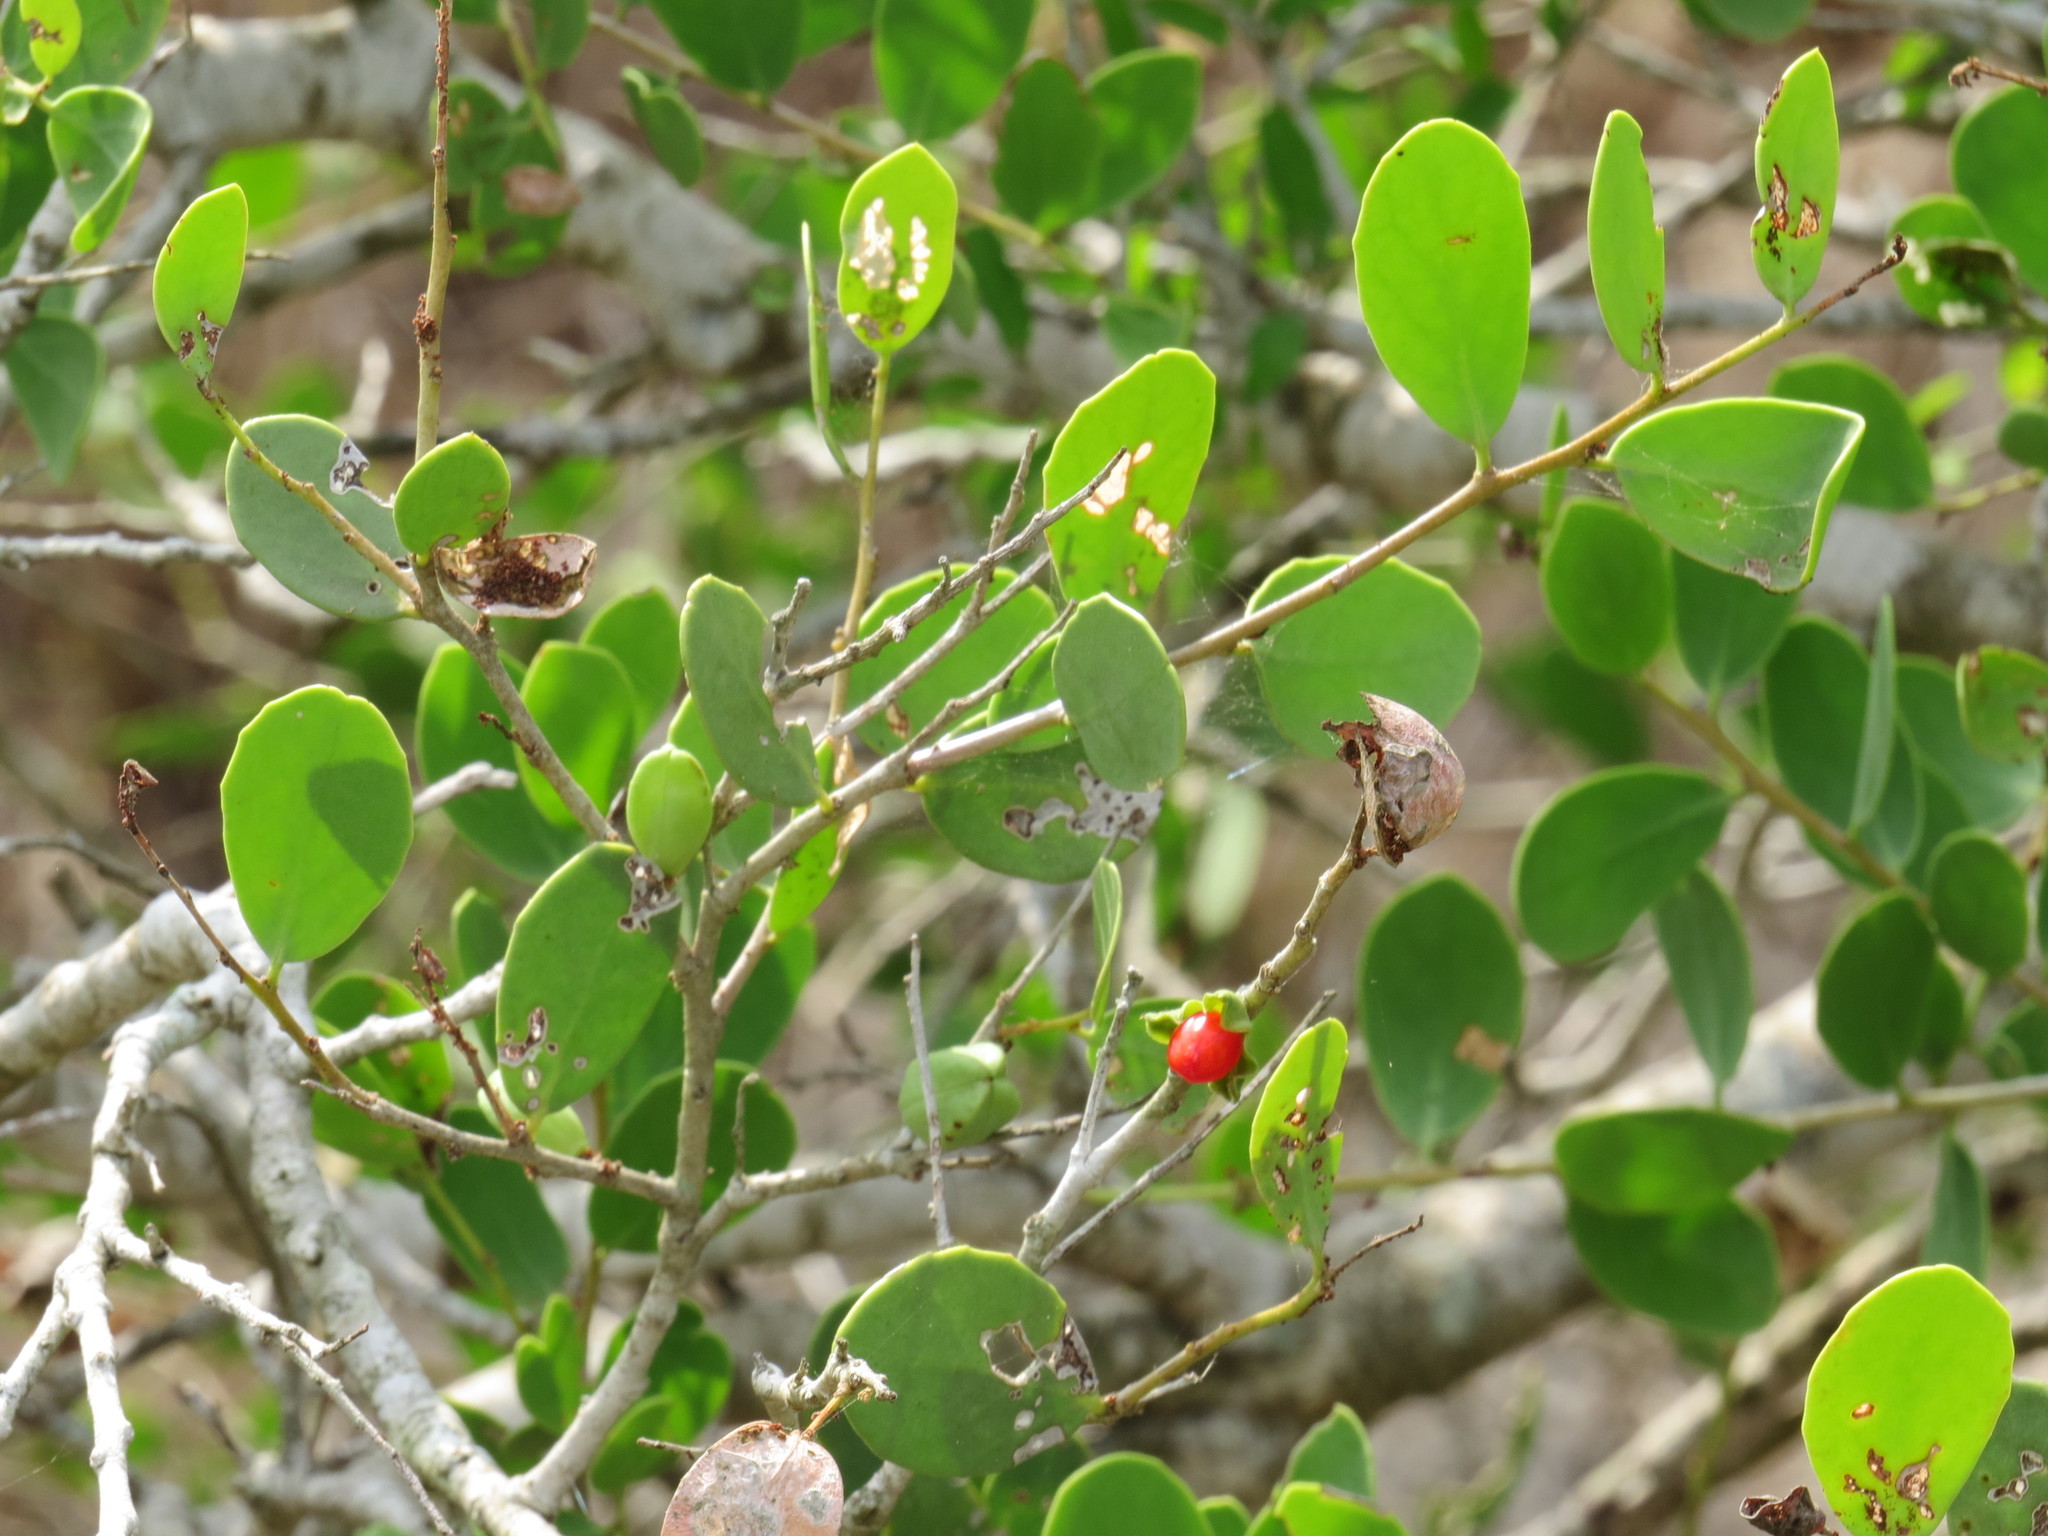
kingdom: Plantae
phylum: Tracheophyta
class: Magnoliopsida
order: Celastrales
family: Celastraceae
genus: Tricerma
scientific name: Tricerma phyllanthoides
